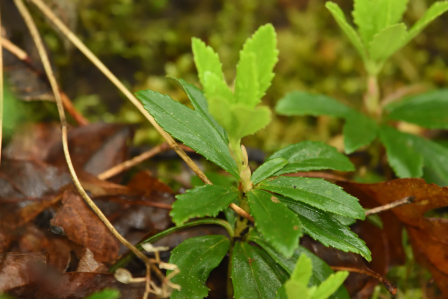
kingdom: Plantae
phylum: Tracheophyta
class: Magnoliopsida
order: Ericales
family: Ericaceae
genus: Chimaphila
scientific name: Chimaphila umbellata
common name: Pipsissewa
